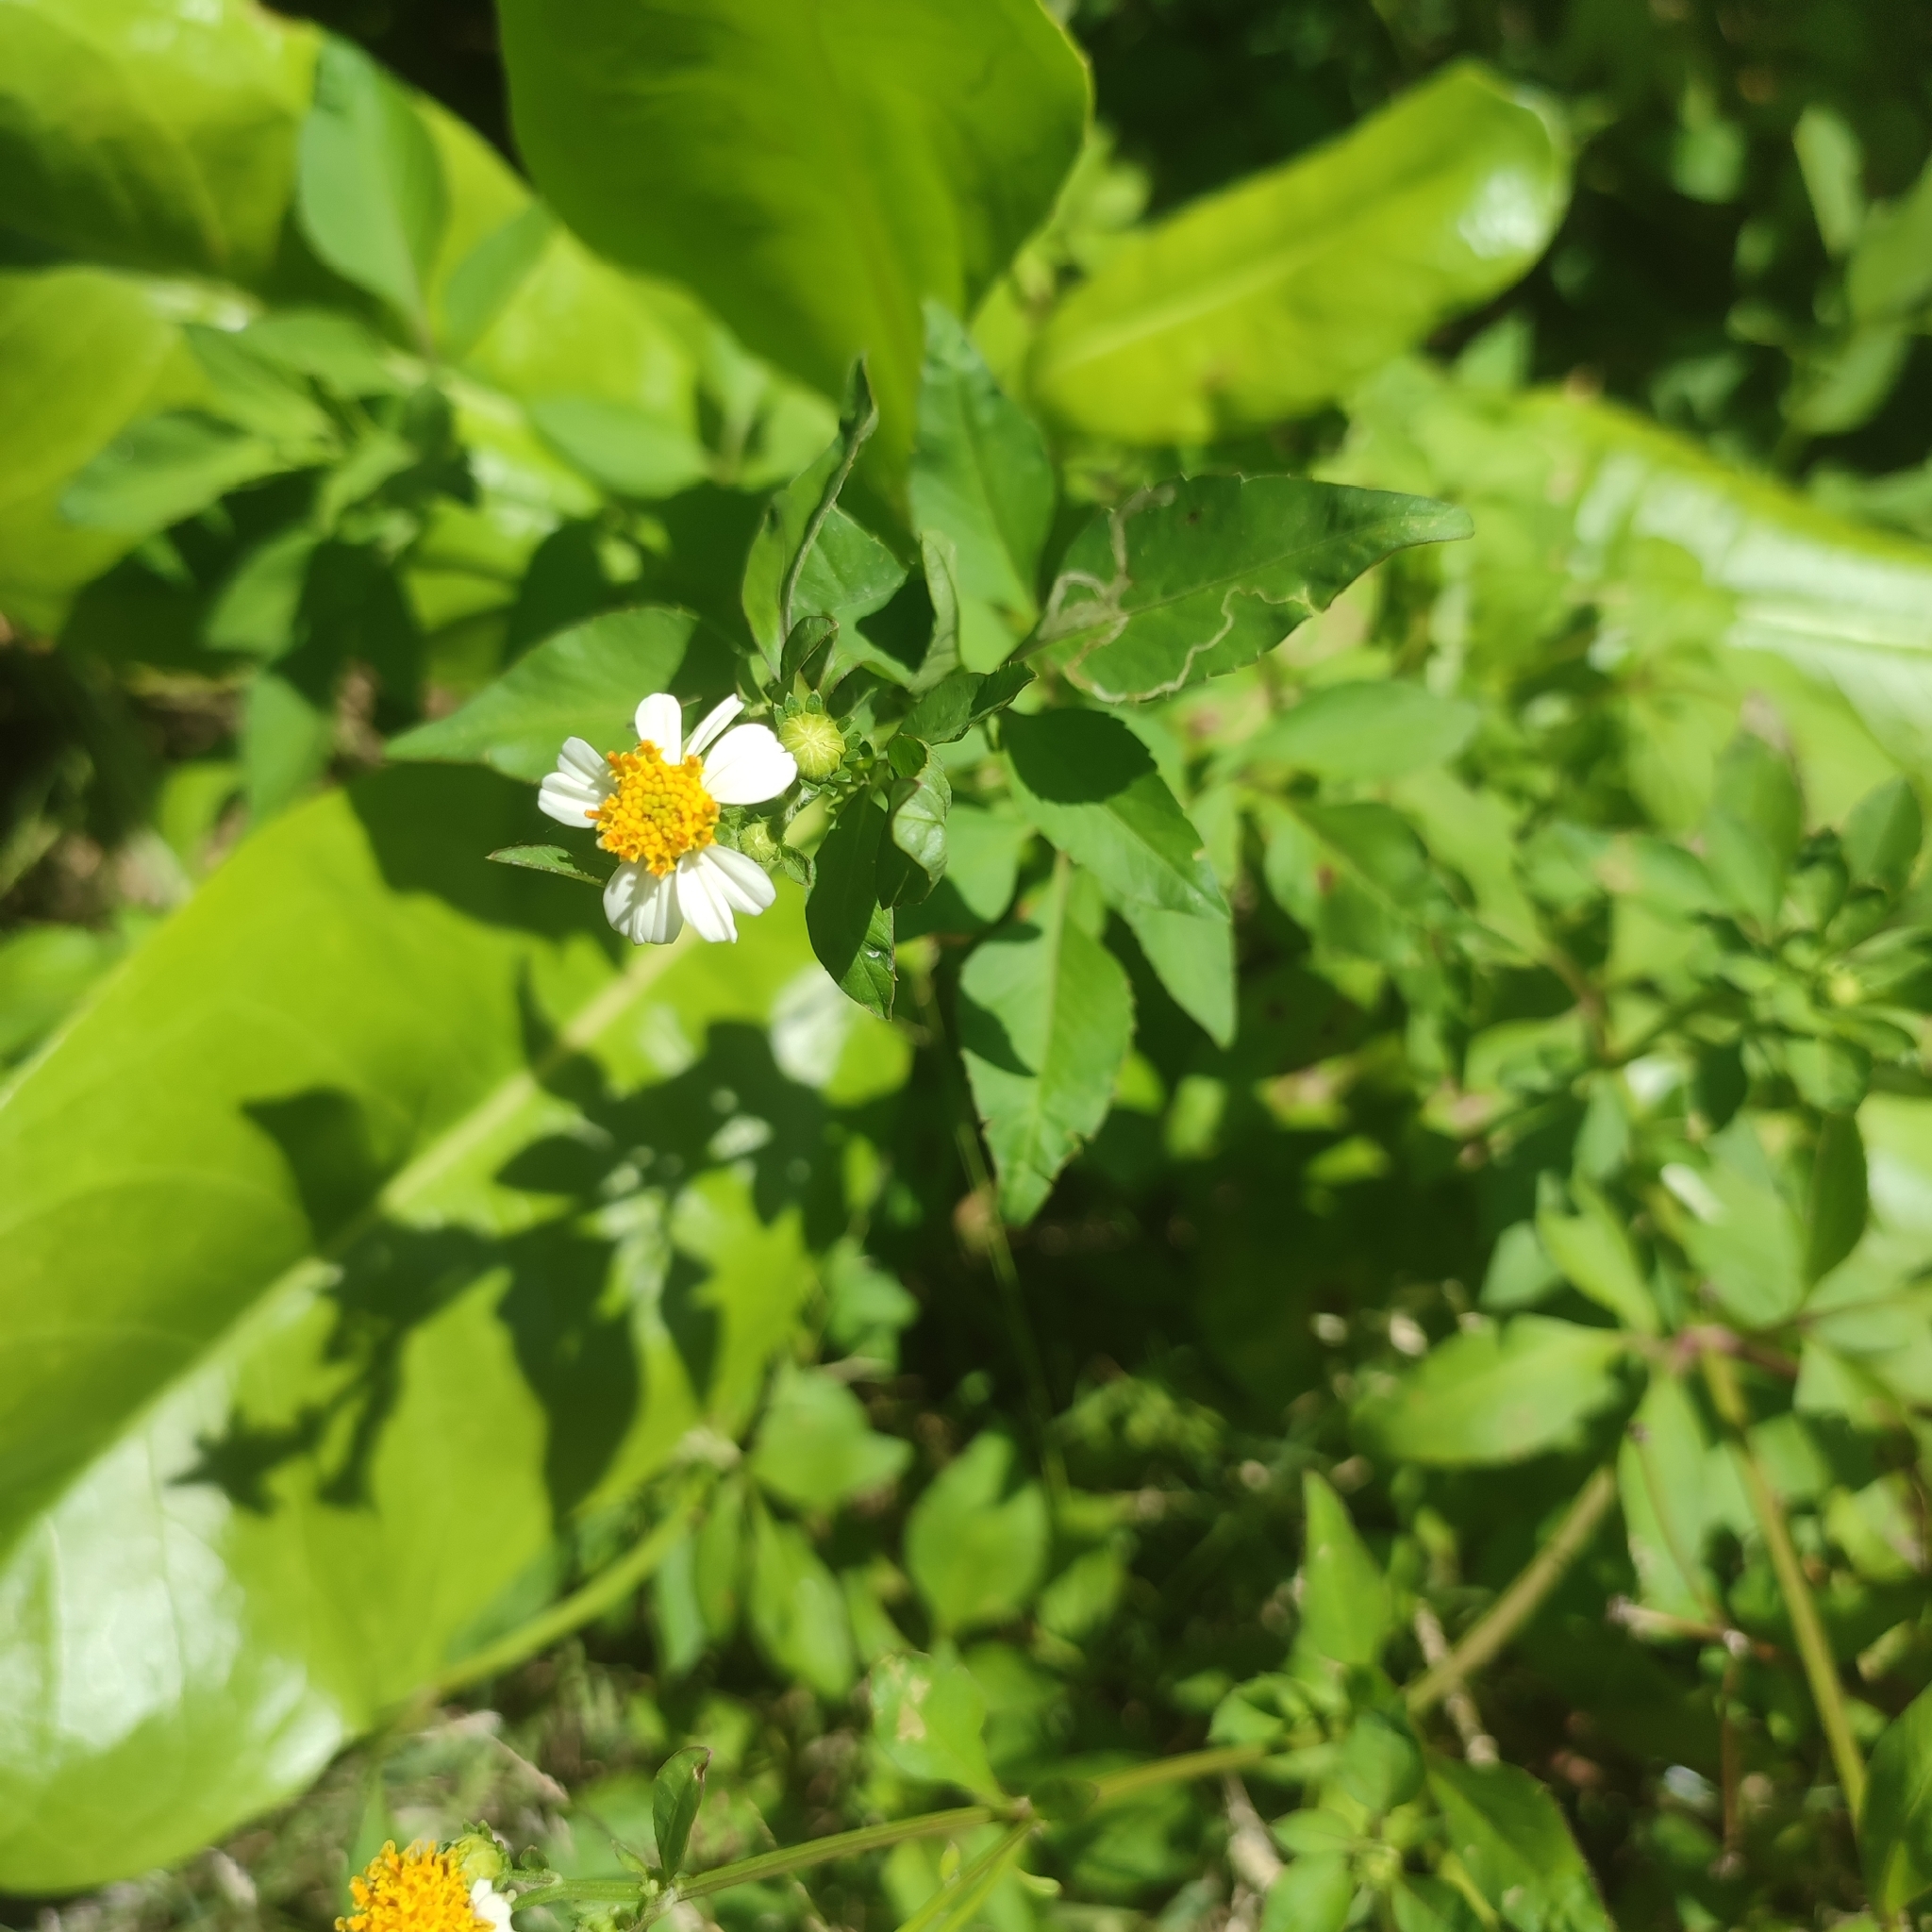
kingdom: Plantae
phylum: Tracheophyta
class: Magnoliopsida
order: Asterales
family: Asteraceae
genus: Bidens
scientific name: Bidens alba
